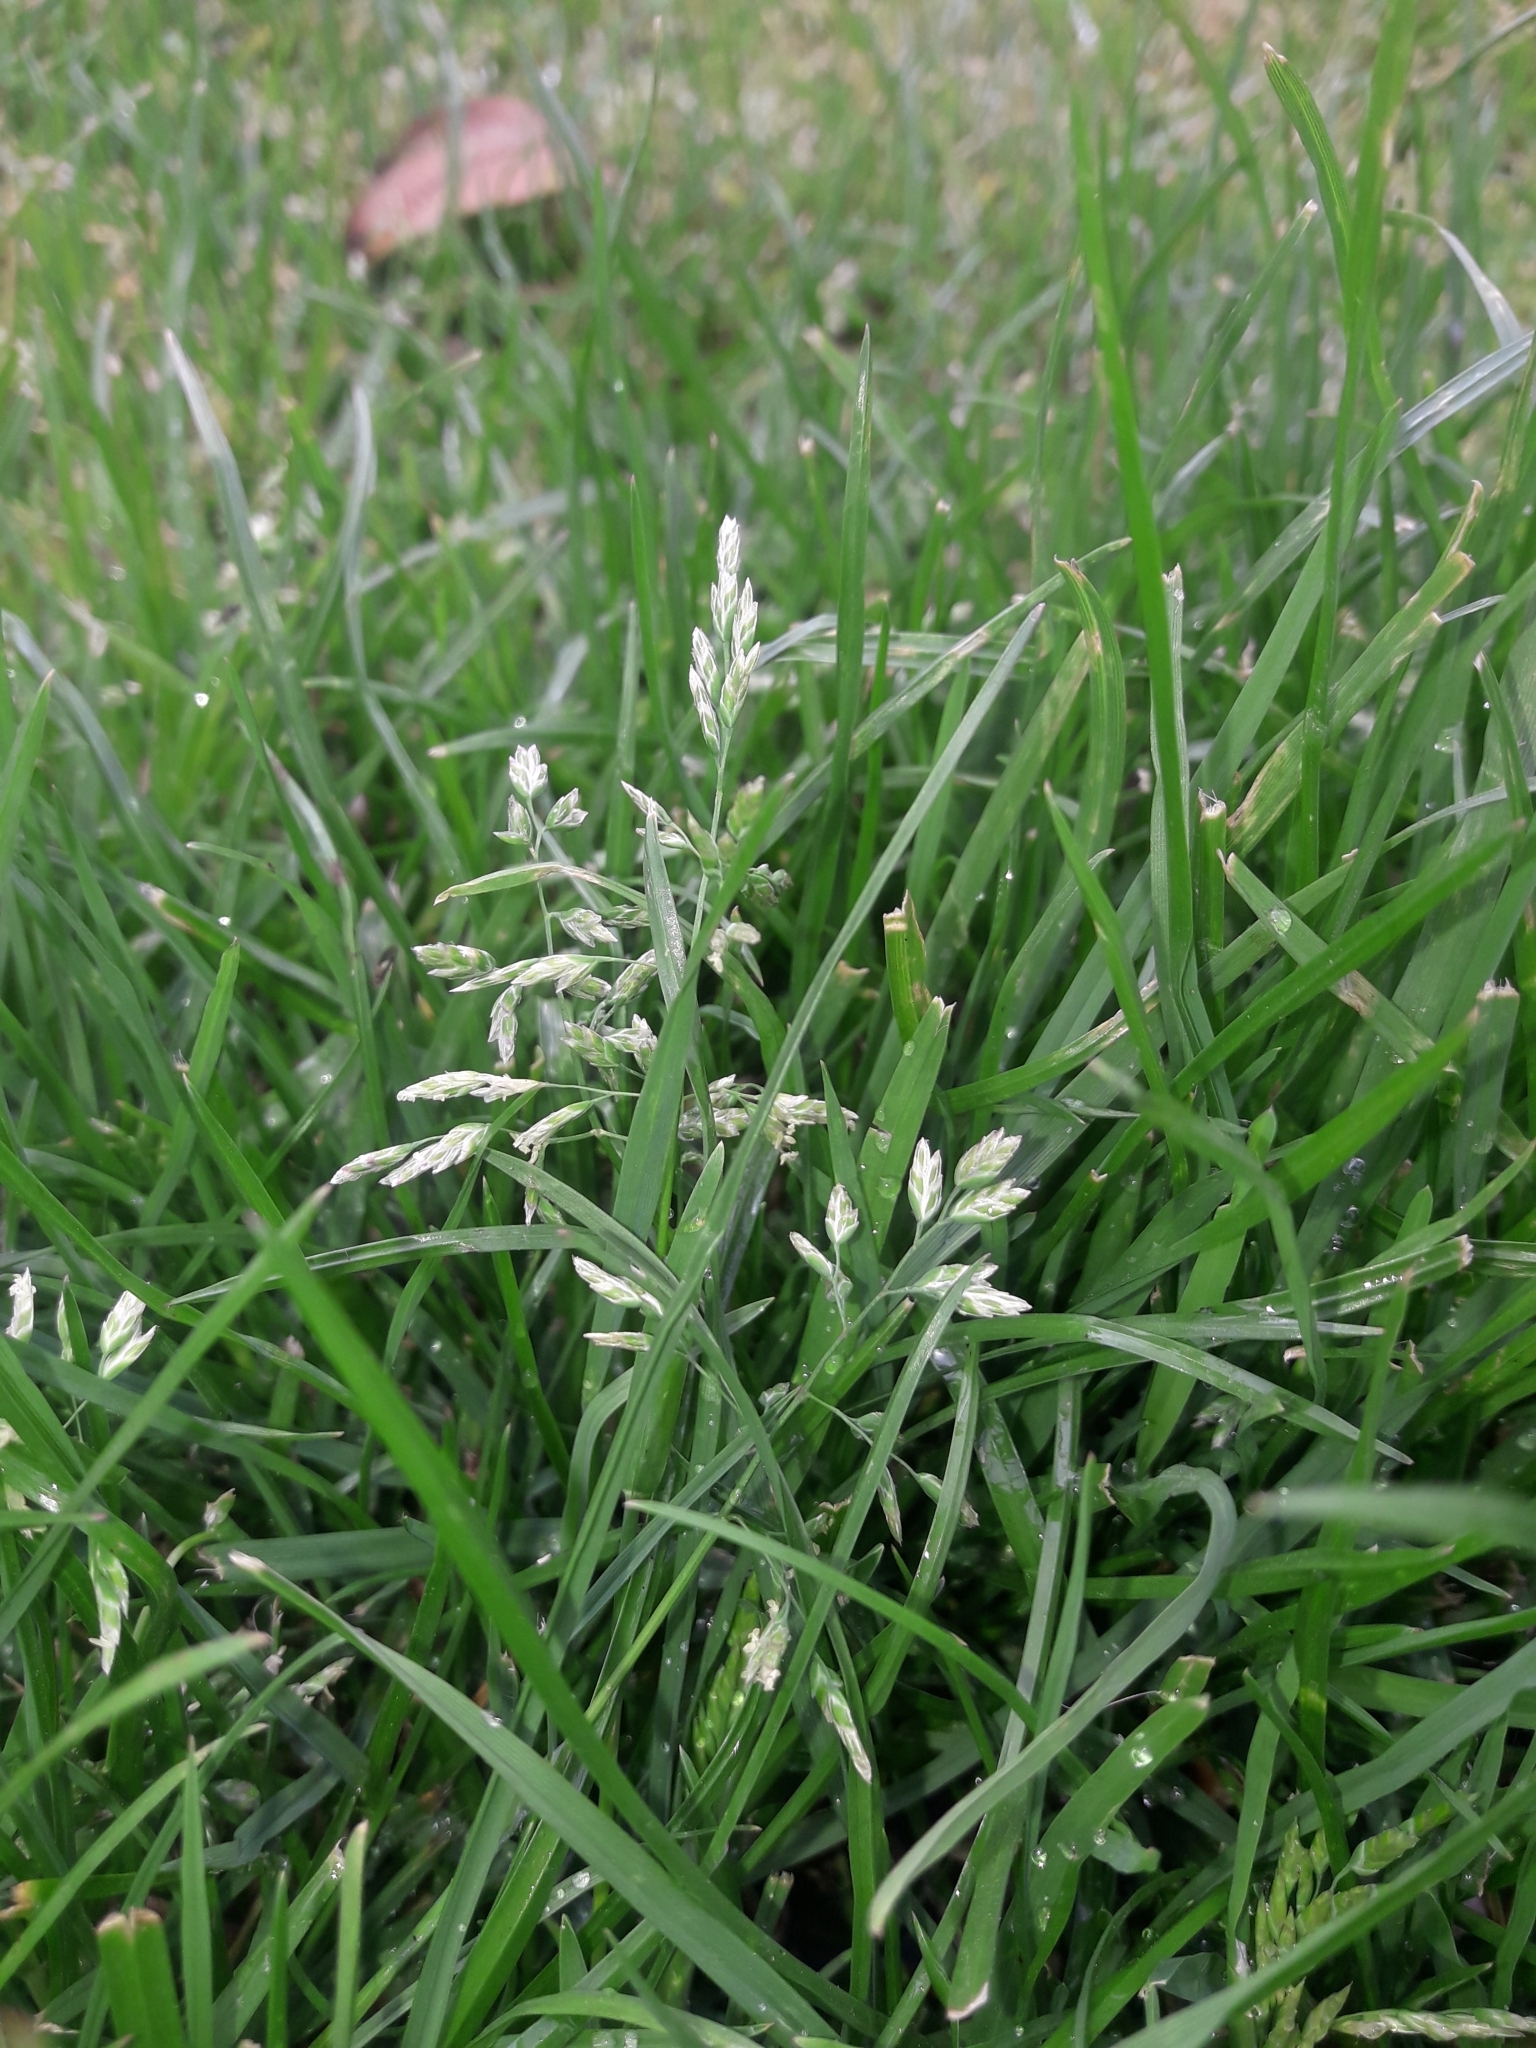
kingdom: Plantae
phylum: Tracheophyta
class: Liliopsida
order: Poales
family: Poaceae
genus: Poa
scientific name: Poa annua
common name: Annual bluegrass
